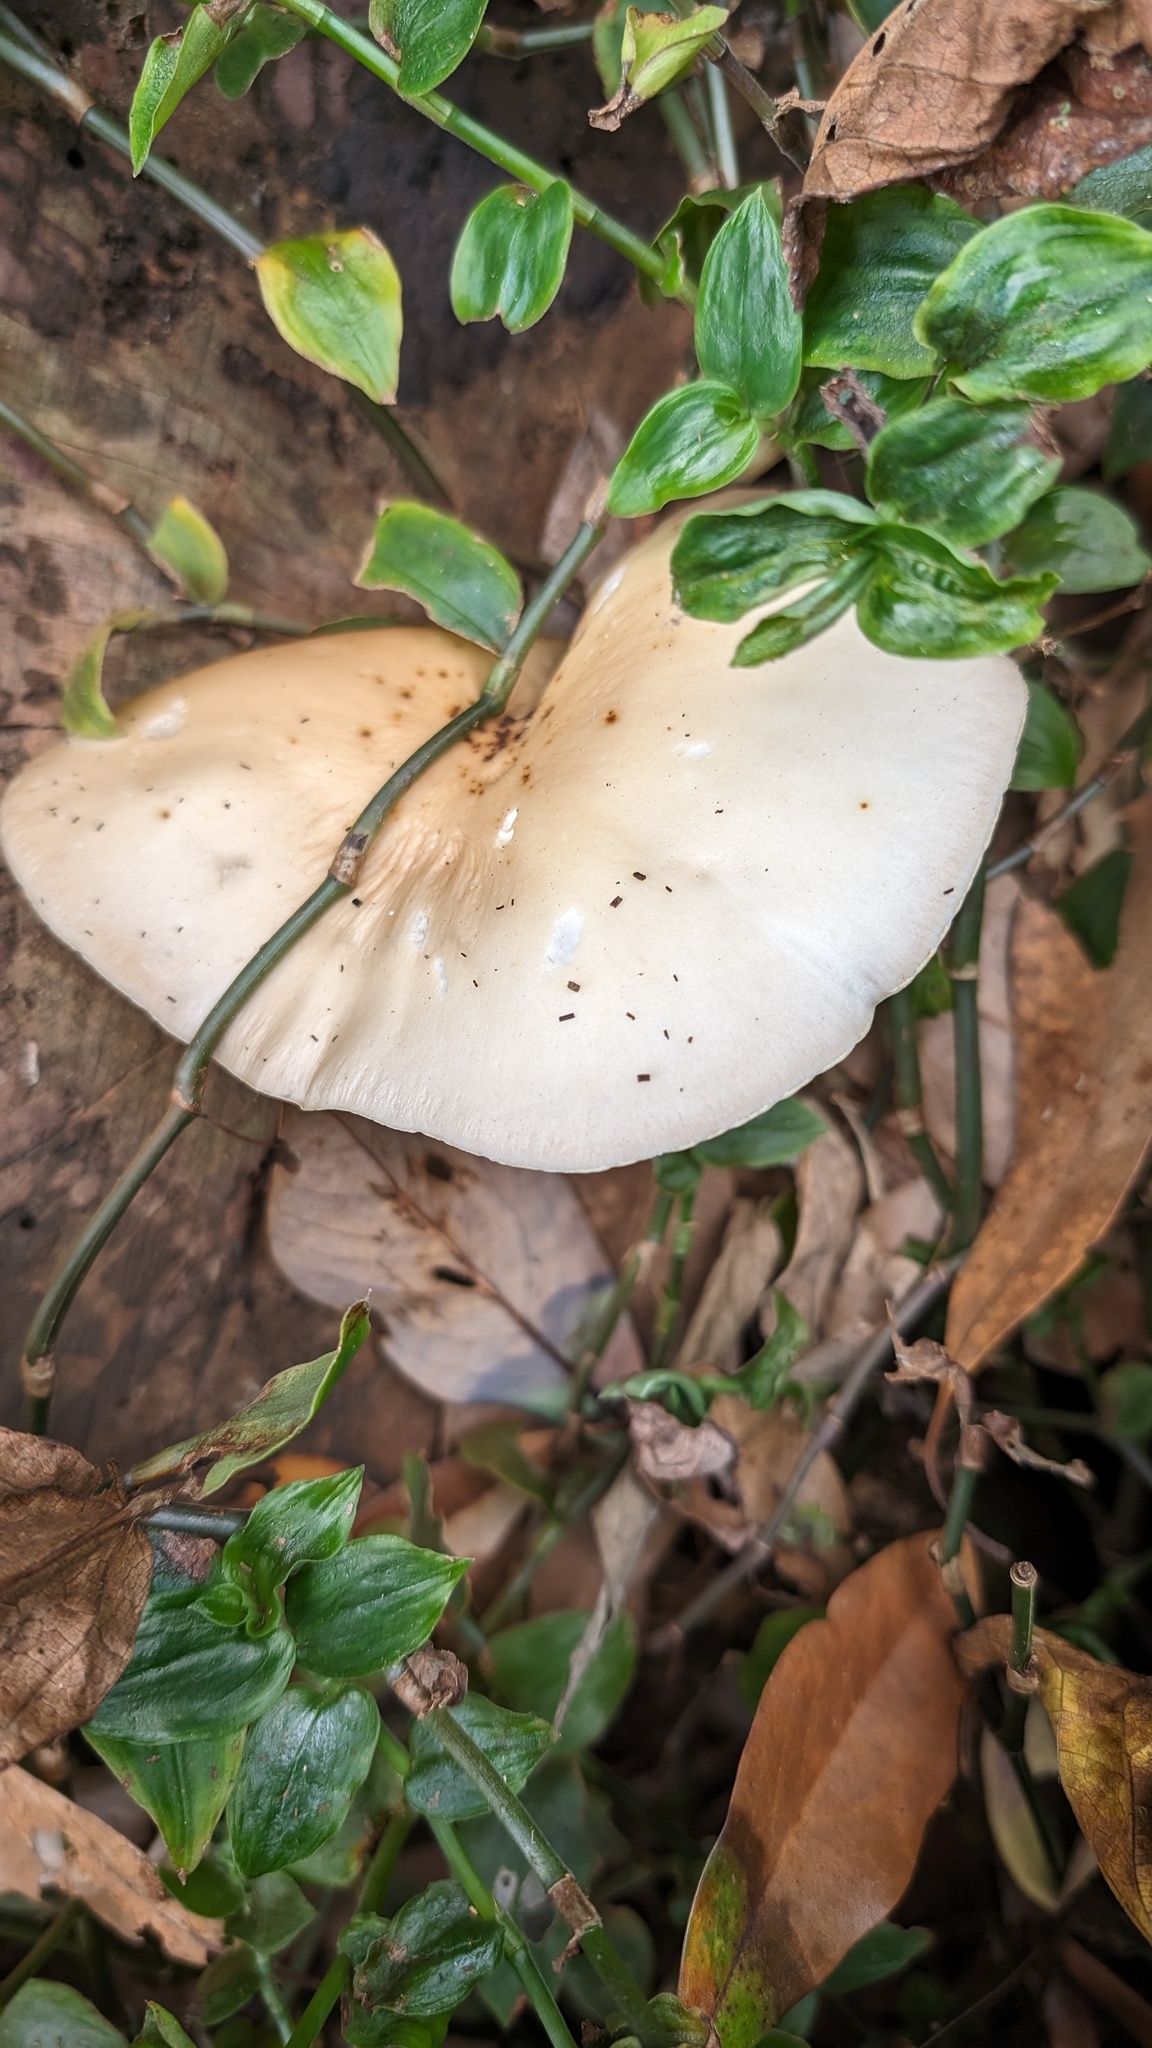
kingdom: Fungi
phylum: Basidiomycota
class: Agaricomycetes
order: Agaricales
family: Tubariaceae
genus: Cyclocybe
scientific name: Cyclocybe cylindracea
